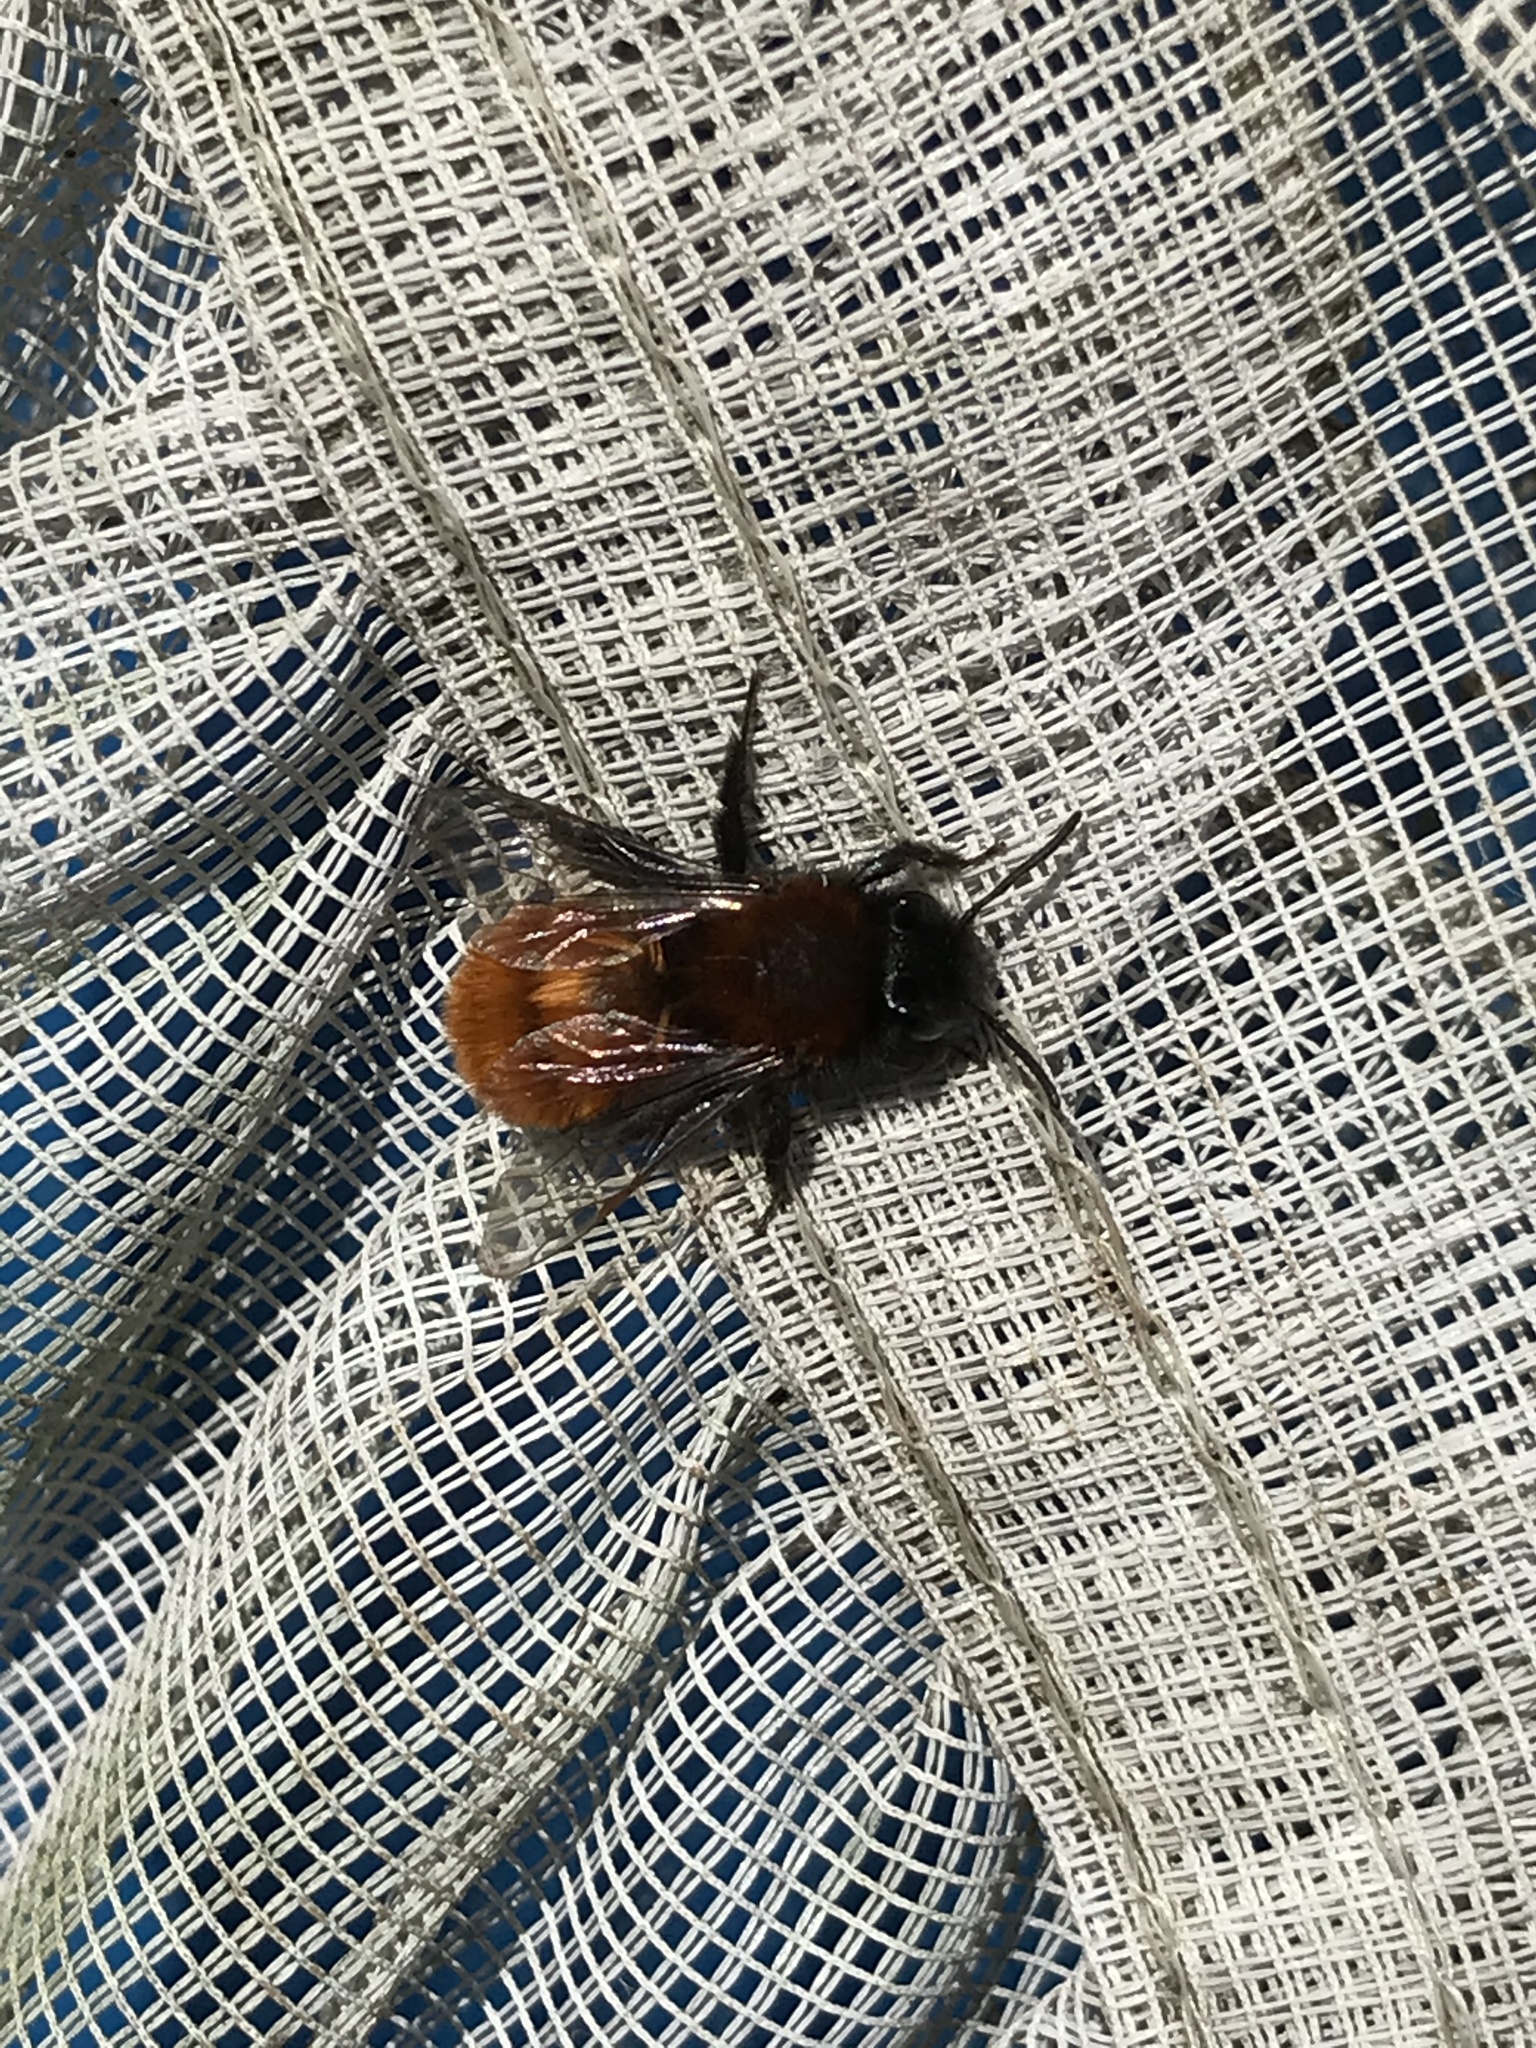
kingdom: Animalia
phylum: Arthropoda
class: Insecta
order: Hymenoptera
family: Andrenidae
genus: Andrena
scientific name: Andrena fulva
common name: Tawny mining bee
